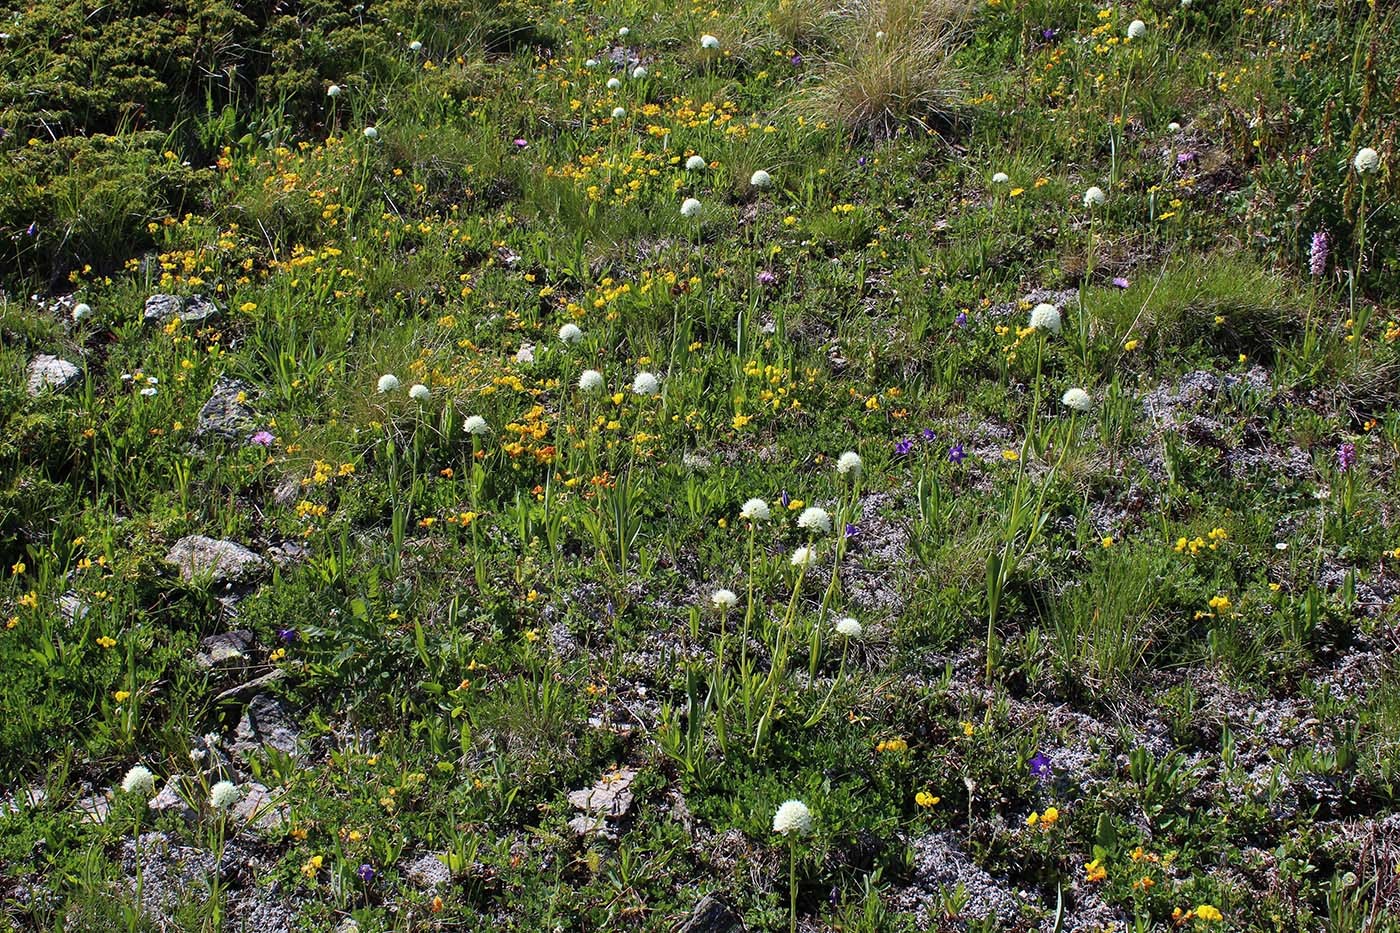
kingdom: Plantae
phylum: Tracheophyta
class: Liliopsida
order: Asparagales
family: Orchidaceae
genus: Traunsteinera
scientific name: Traunsteinera sphaerica
